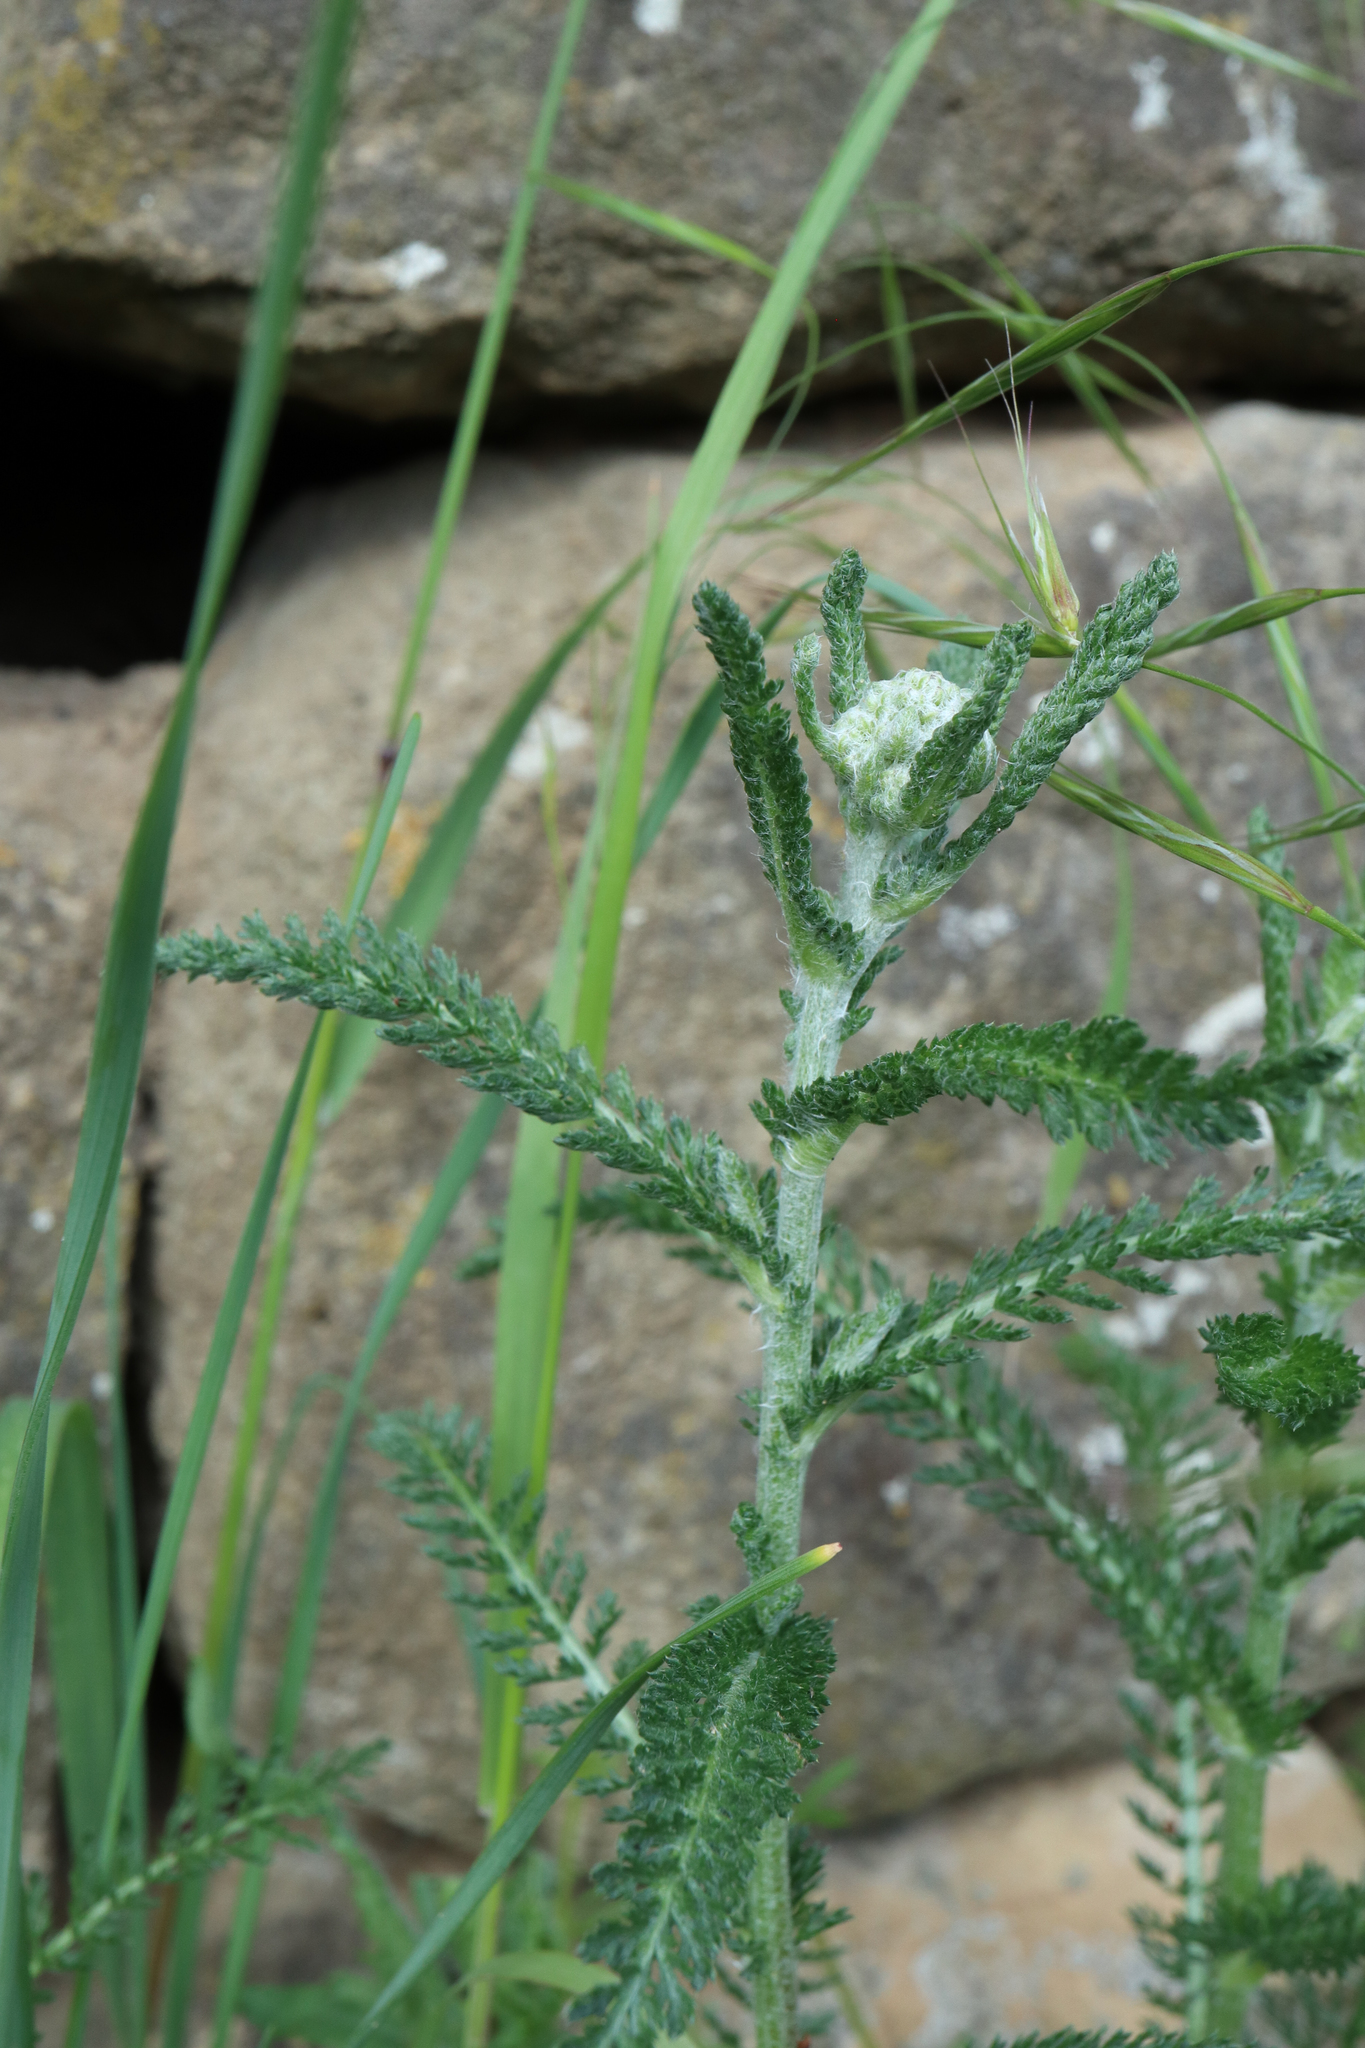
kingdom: Plantae
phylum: Tracheophyta
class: Magnoliopsida
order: Asterales
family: Asteraceae
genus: Achillea
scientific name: Achillea millefolium
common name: Yarrow
